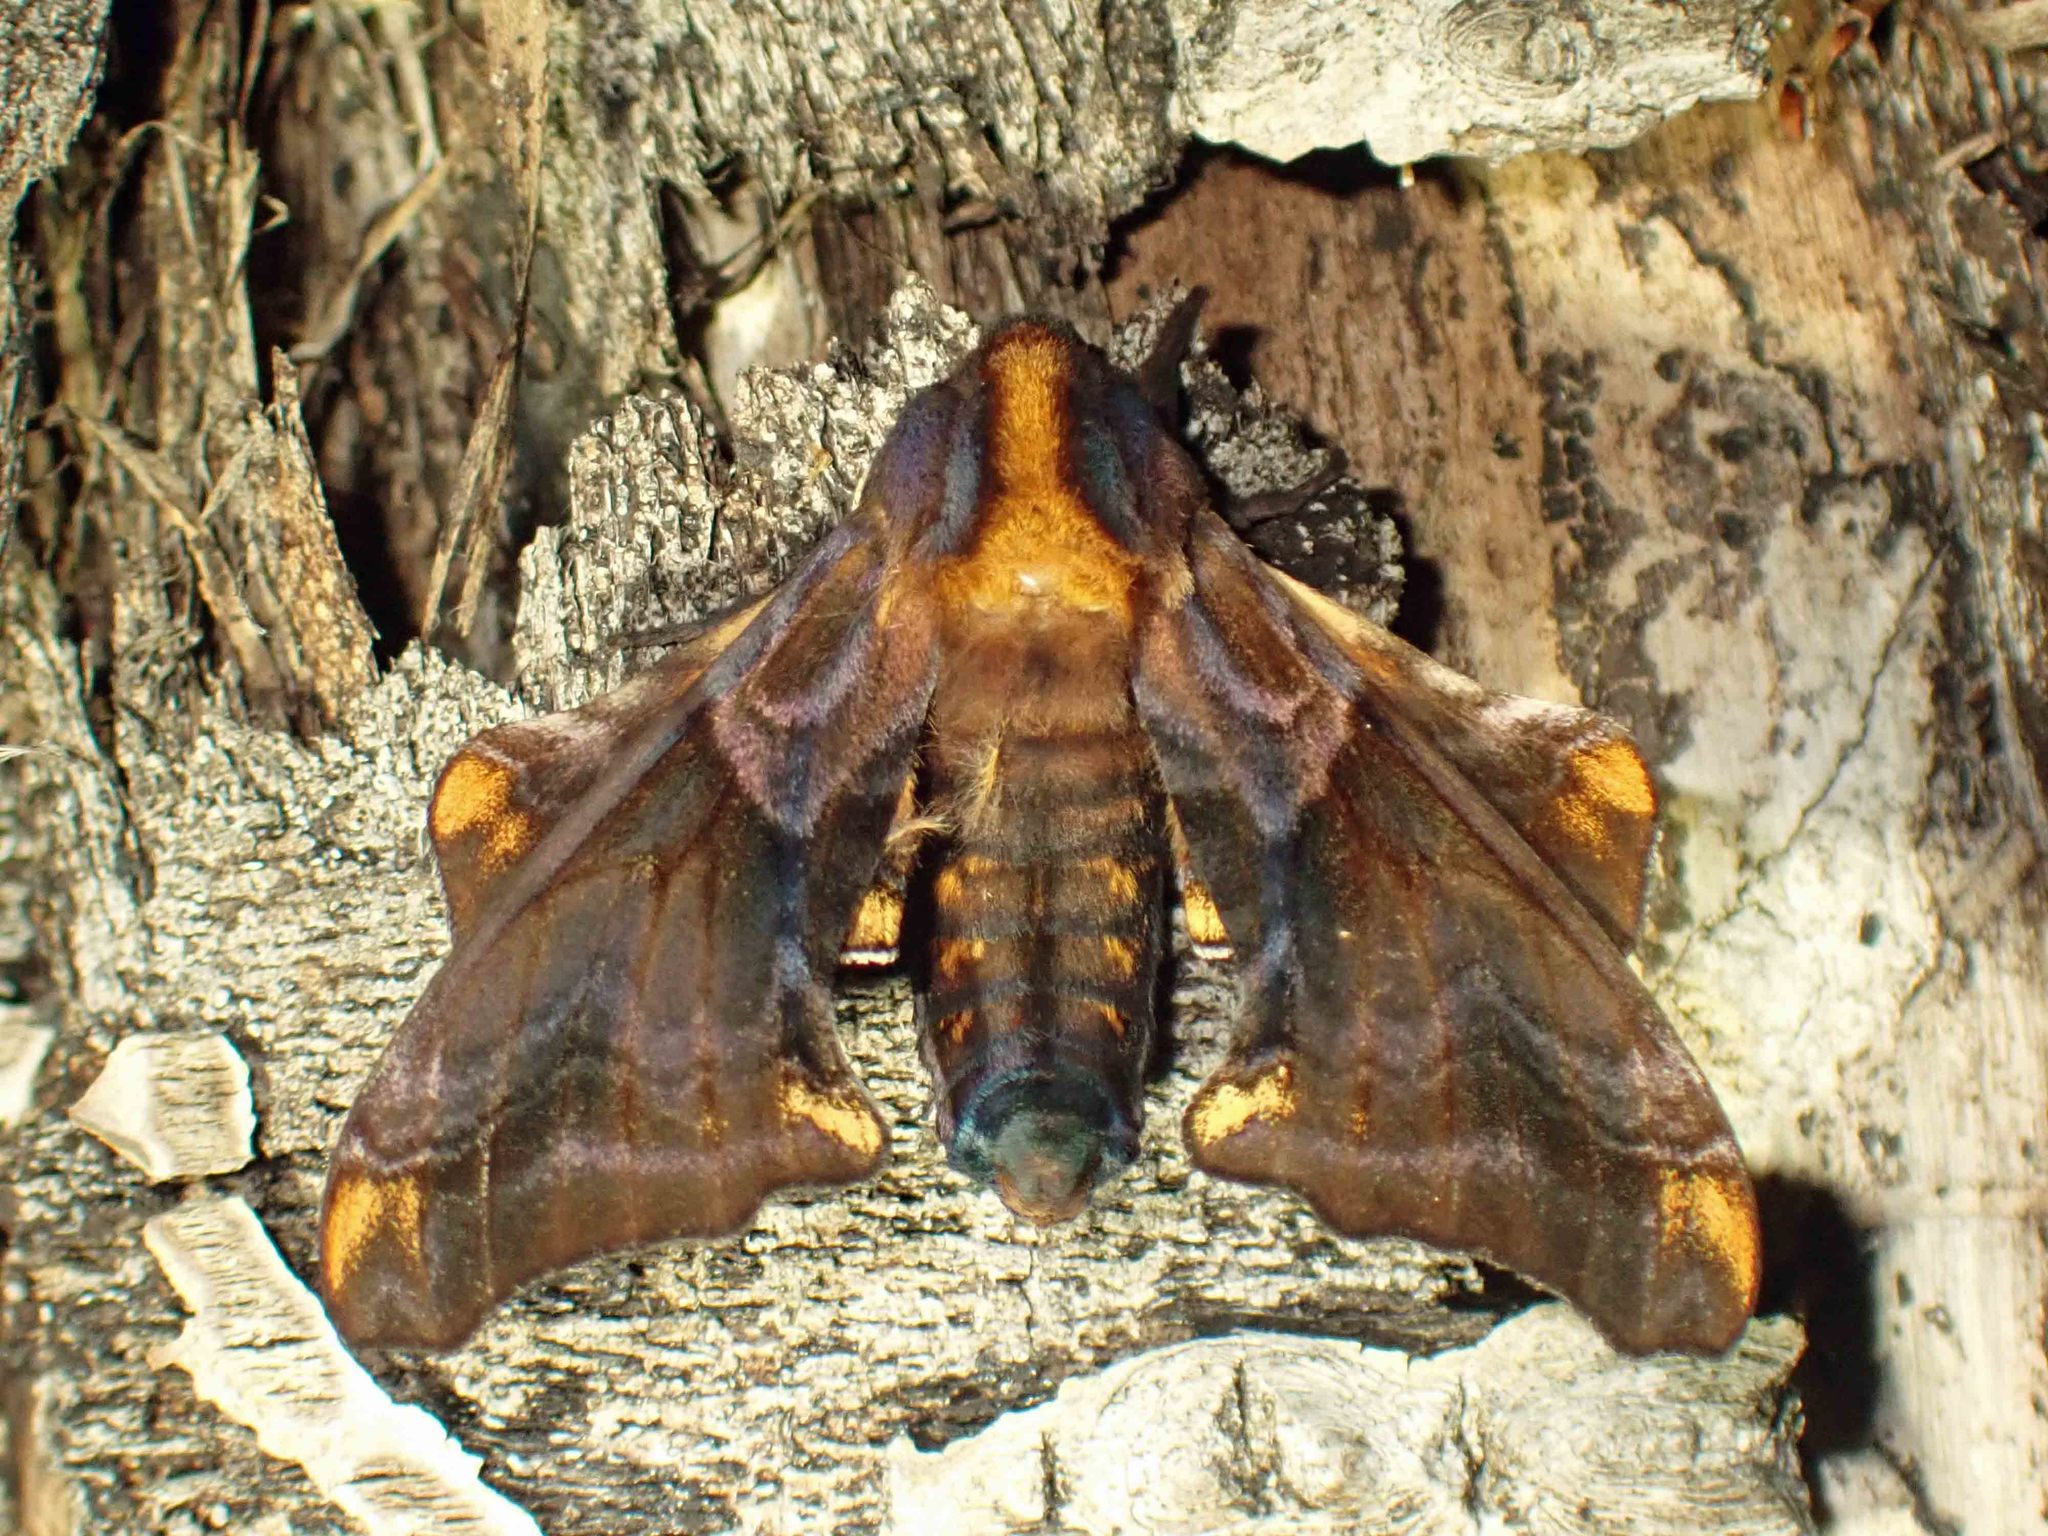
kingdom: Animalia
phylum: Arthropoda
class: Insecta
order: Lepidoptera
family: Sphingidae
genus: Paonias
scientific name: Paonias myops
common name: Small-eyed sphinx
